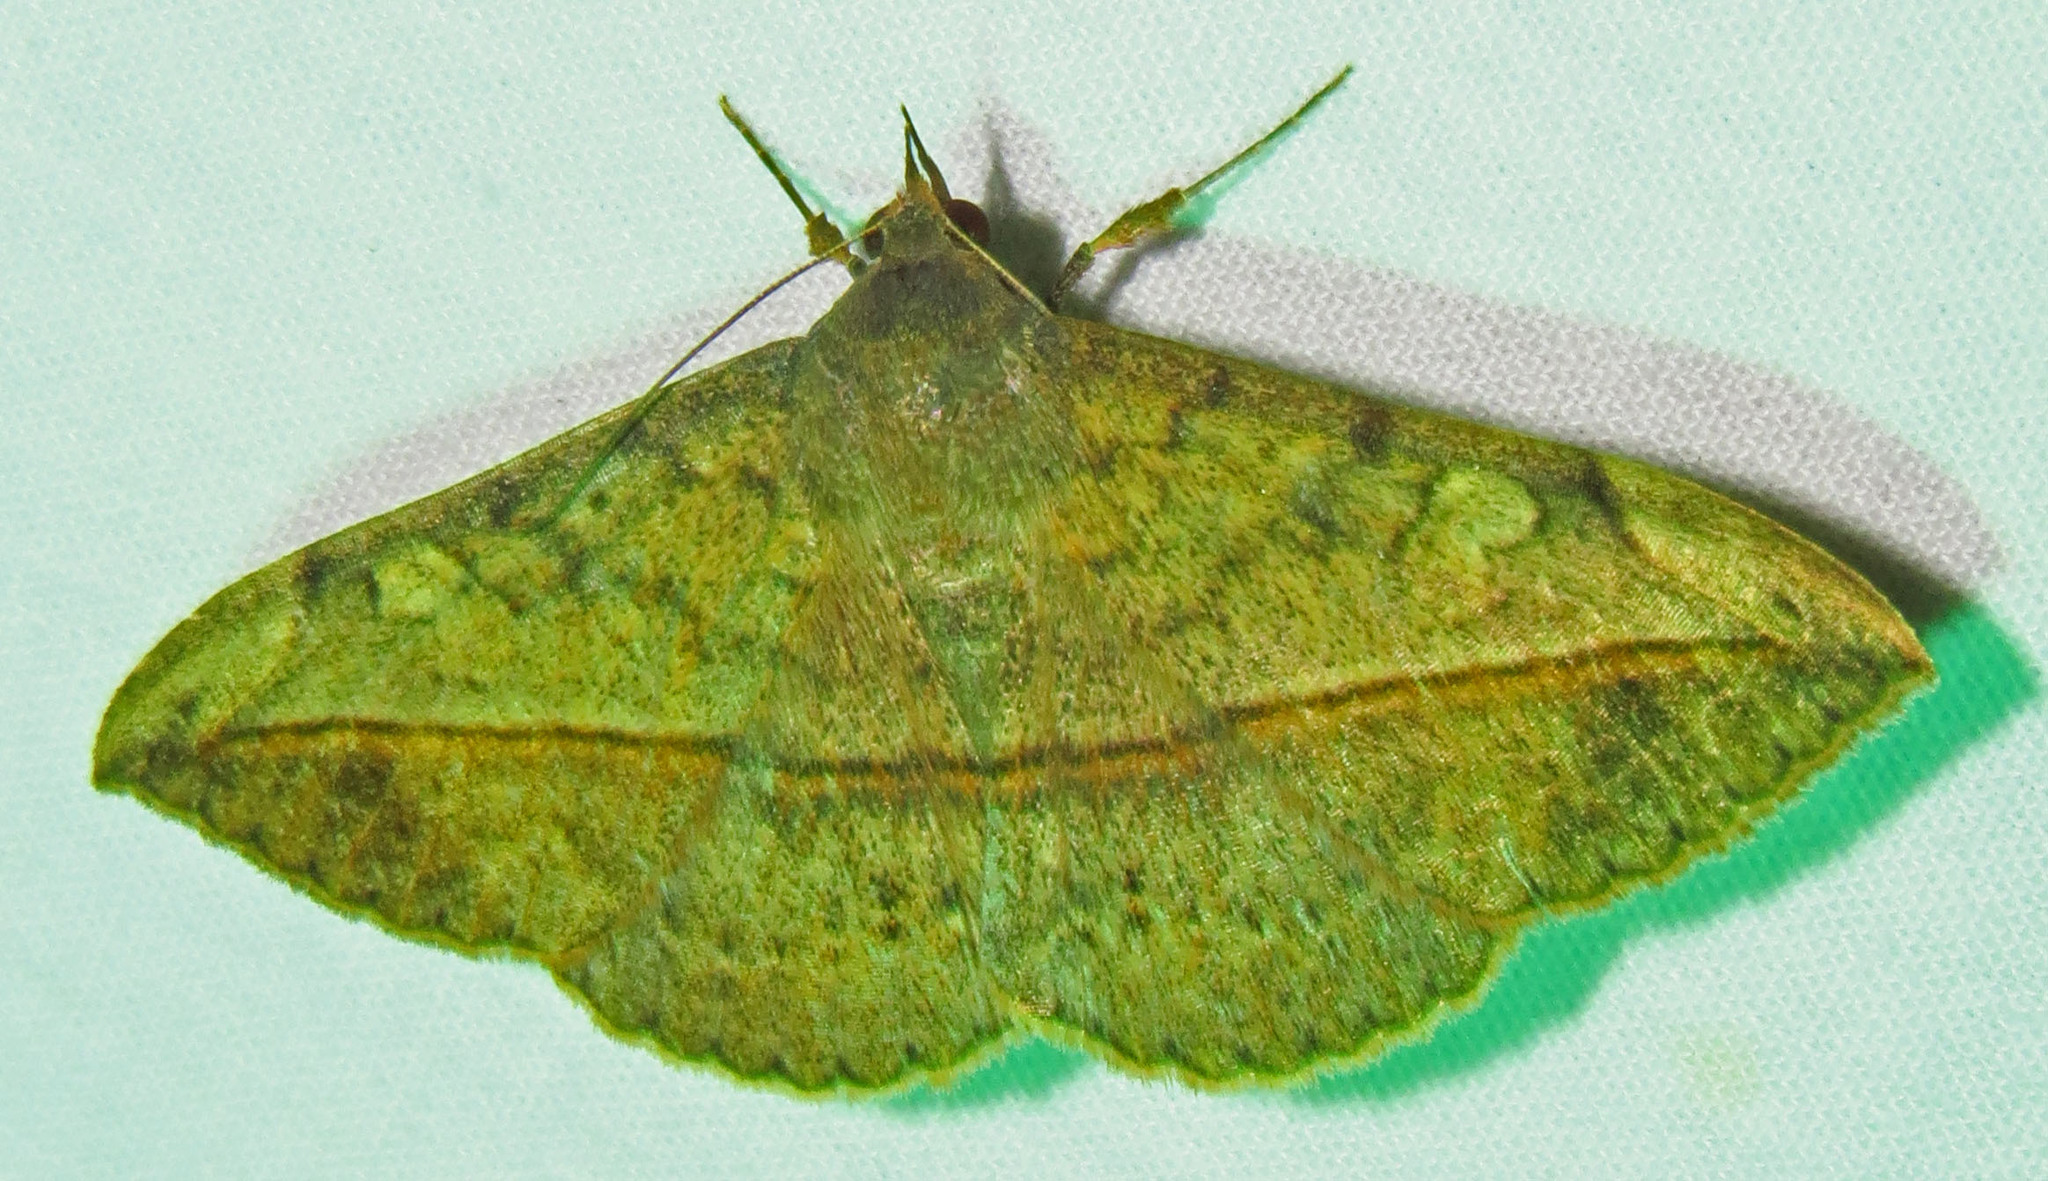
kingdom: Animalia
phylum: Arthropoda
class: Insecta
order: Lepidoptera
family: Erebidae
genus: Anticarsia
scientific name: Anticarsia gemmatalis
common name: Cutworm moth
